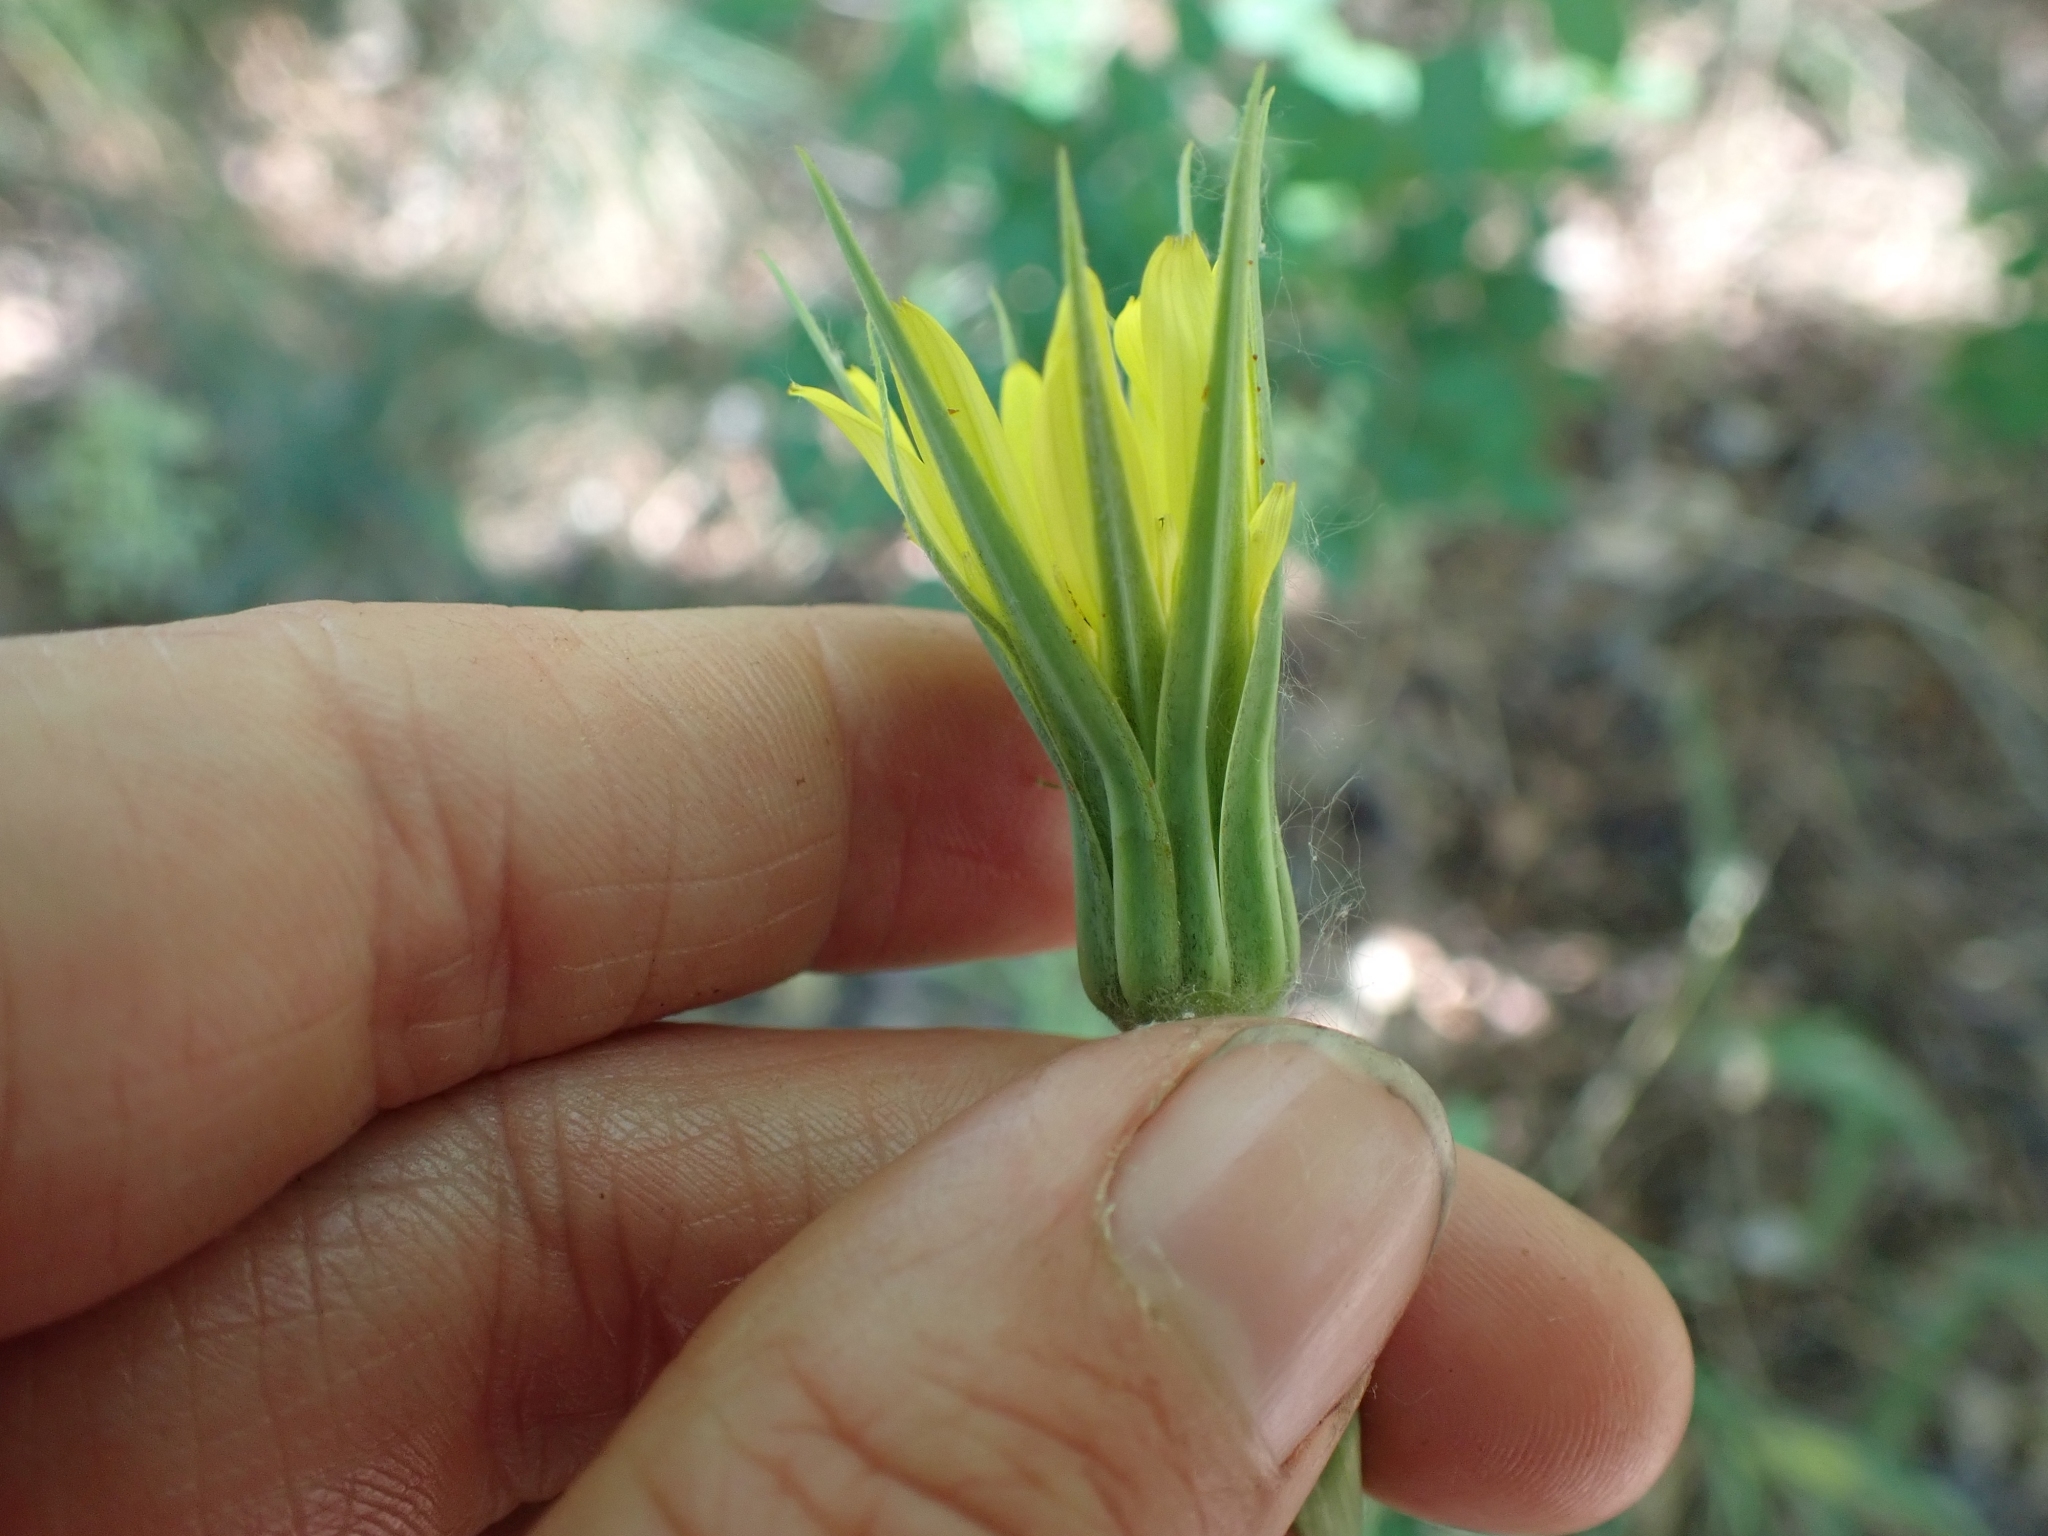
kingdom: Plantae
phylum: Tracheophyta
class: Magnoliopsida
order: Asterales
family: Asteraceae
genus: Tragopogon
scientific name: Tragopogon dubius
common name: Yellow salsify
